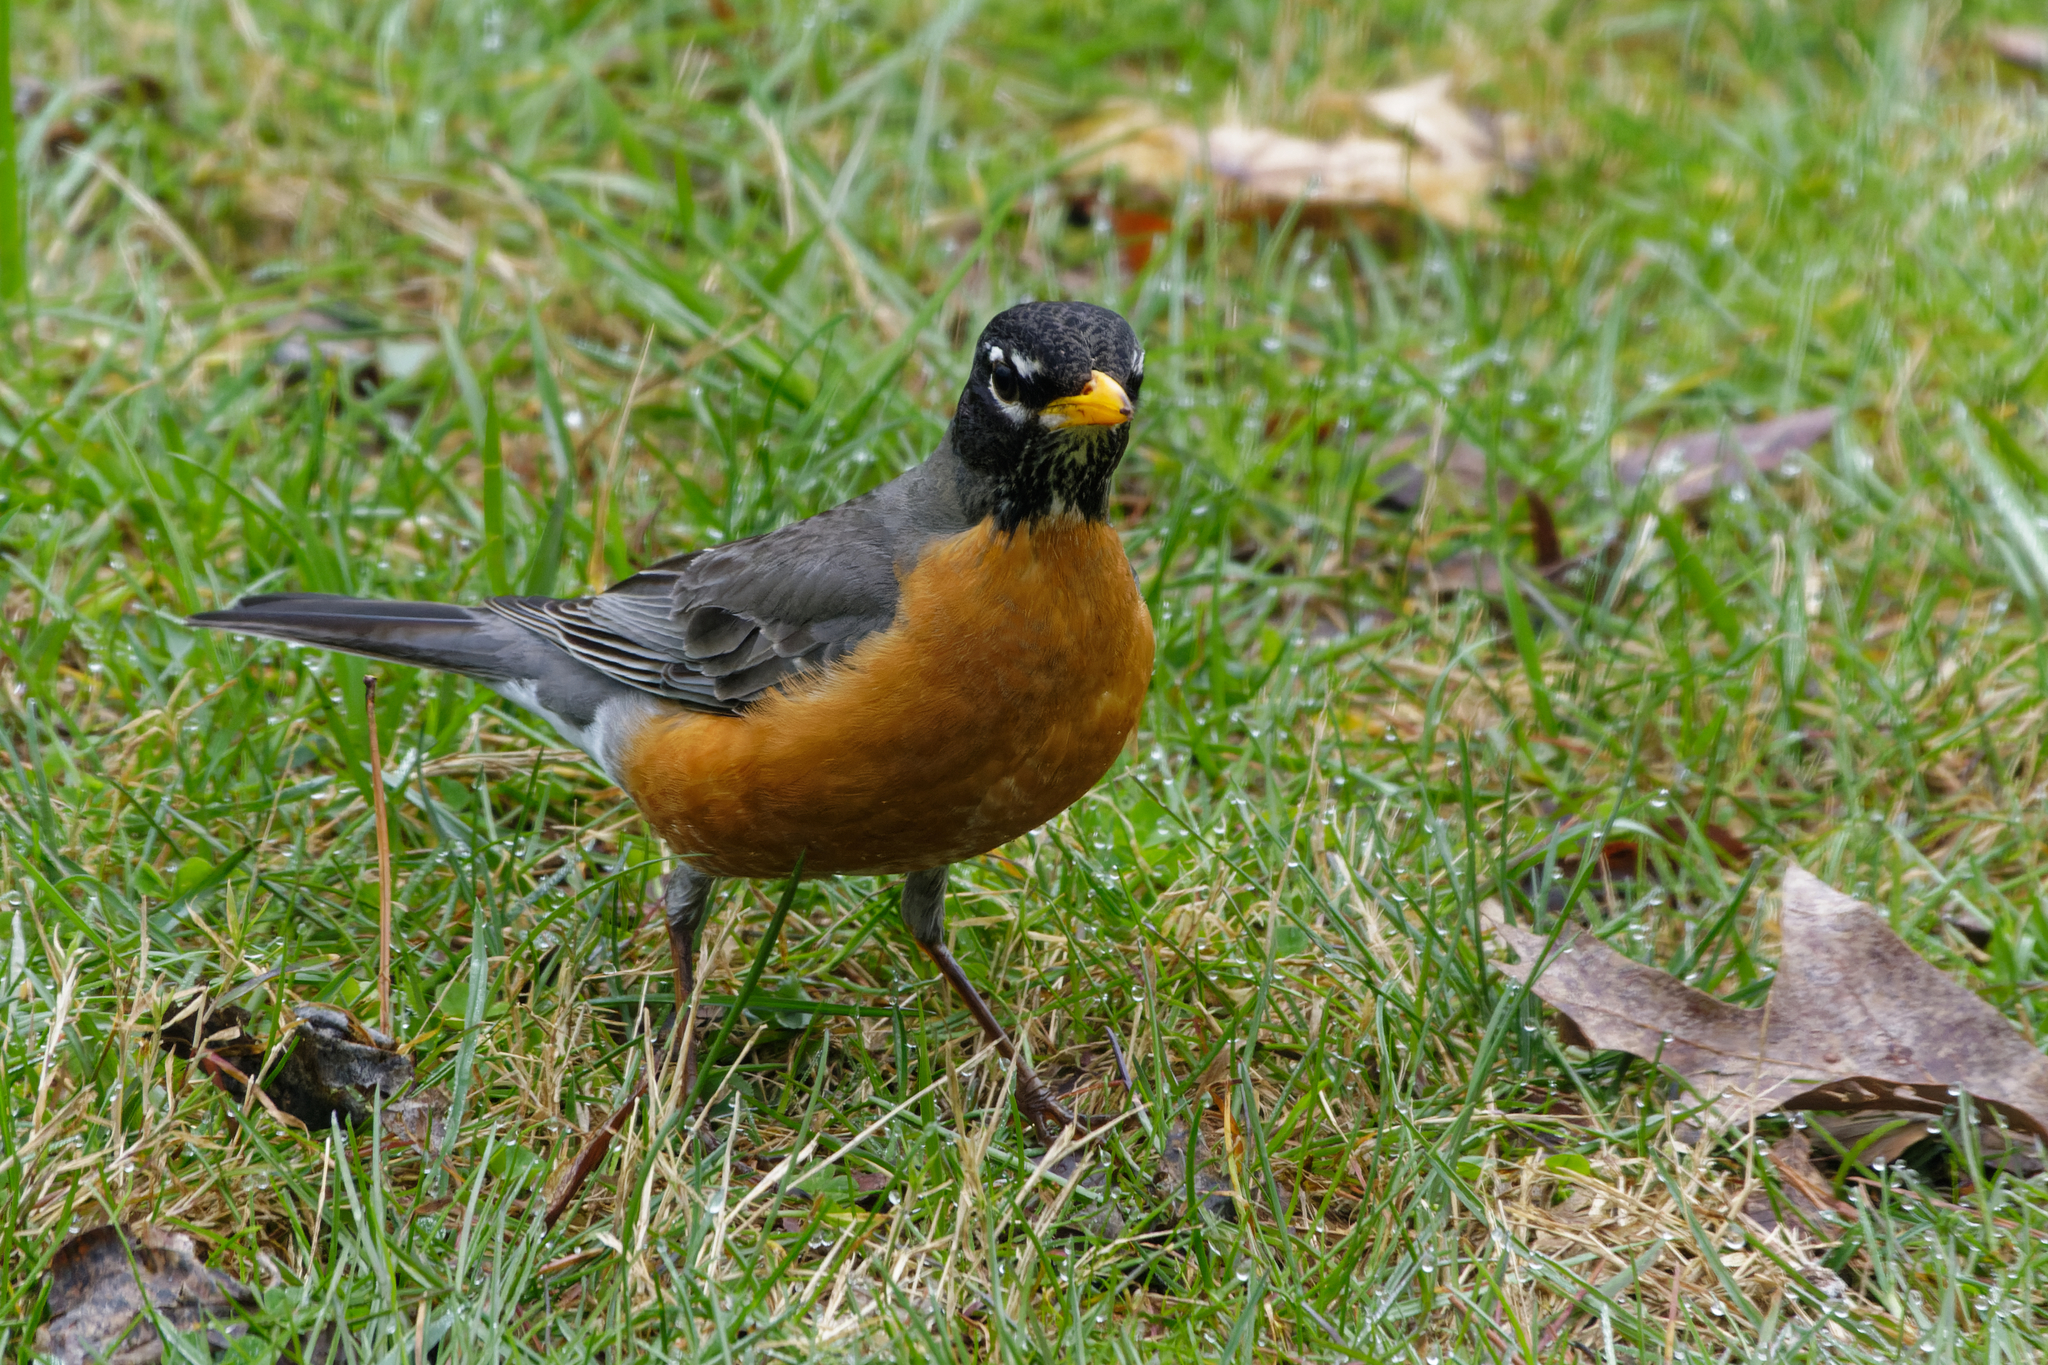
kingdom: Animalia
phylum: Chordata
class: Aves
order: Passeriformes
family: Turdidae
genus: Turdus
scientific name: Turdus migratorius
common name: American robin
